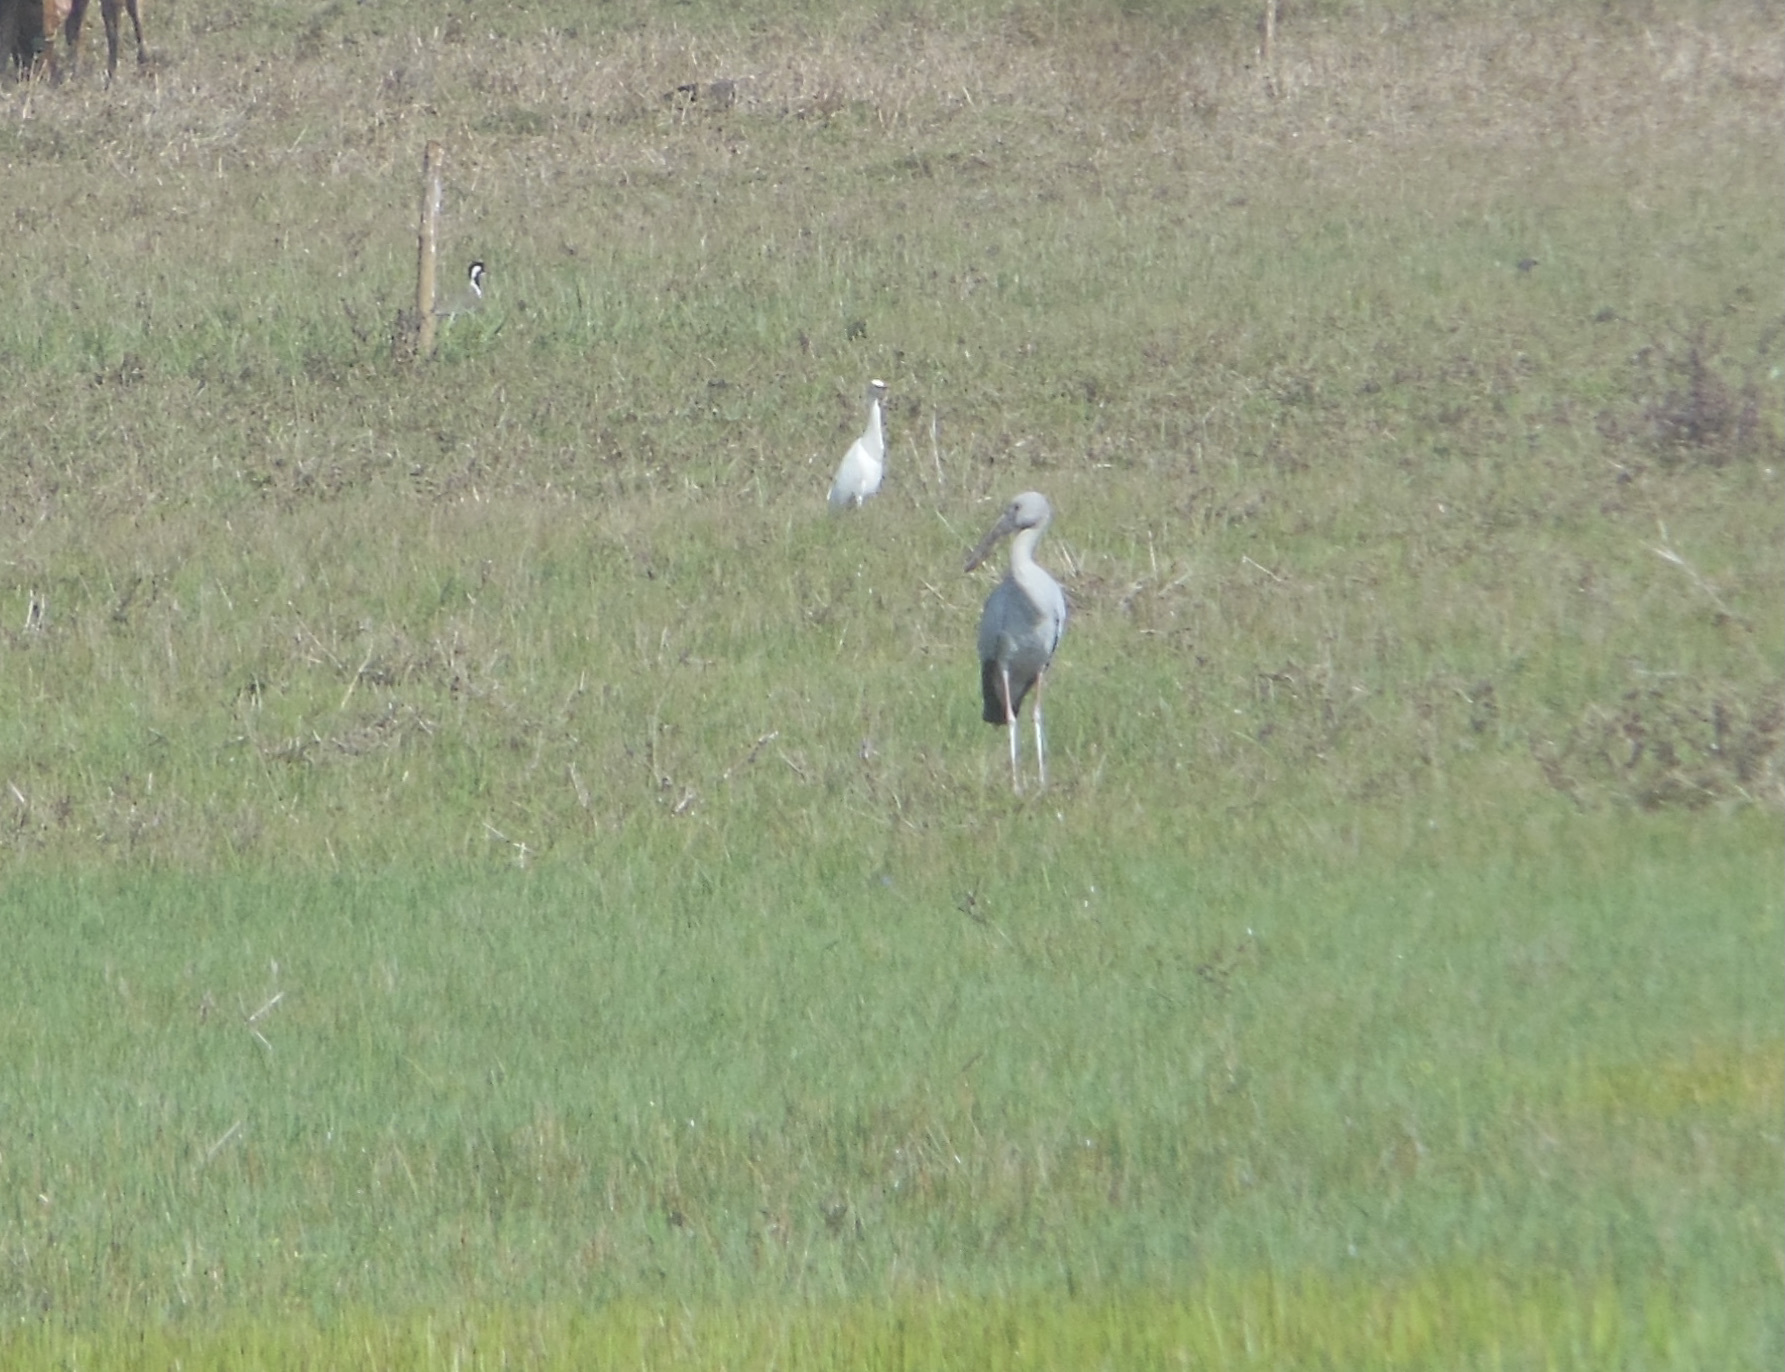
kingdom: Animalia
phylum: Chordata
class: Aves
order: Ciconiiformes
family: Ciconiidae
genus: Anastomus
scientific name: Anastomus oscitans
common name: Asian openbill
